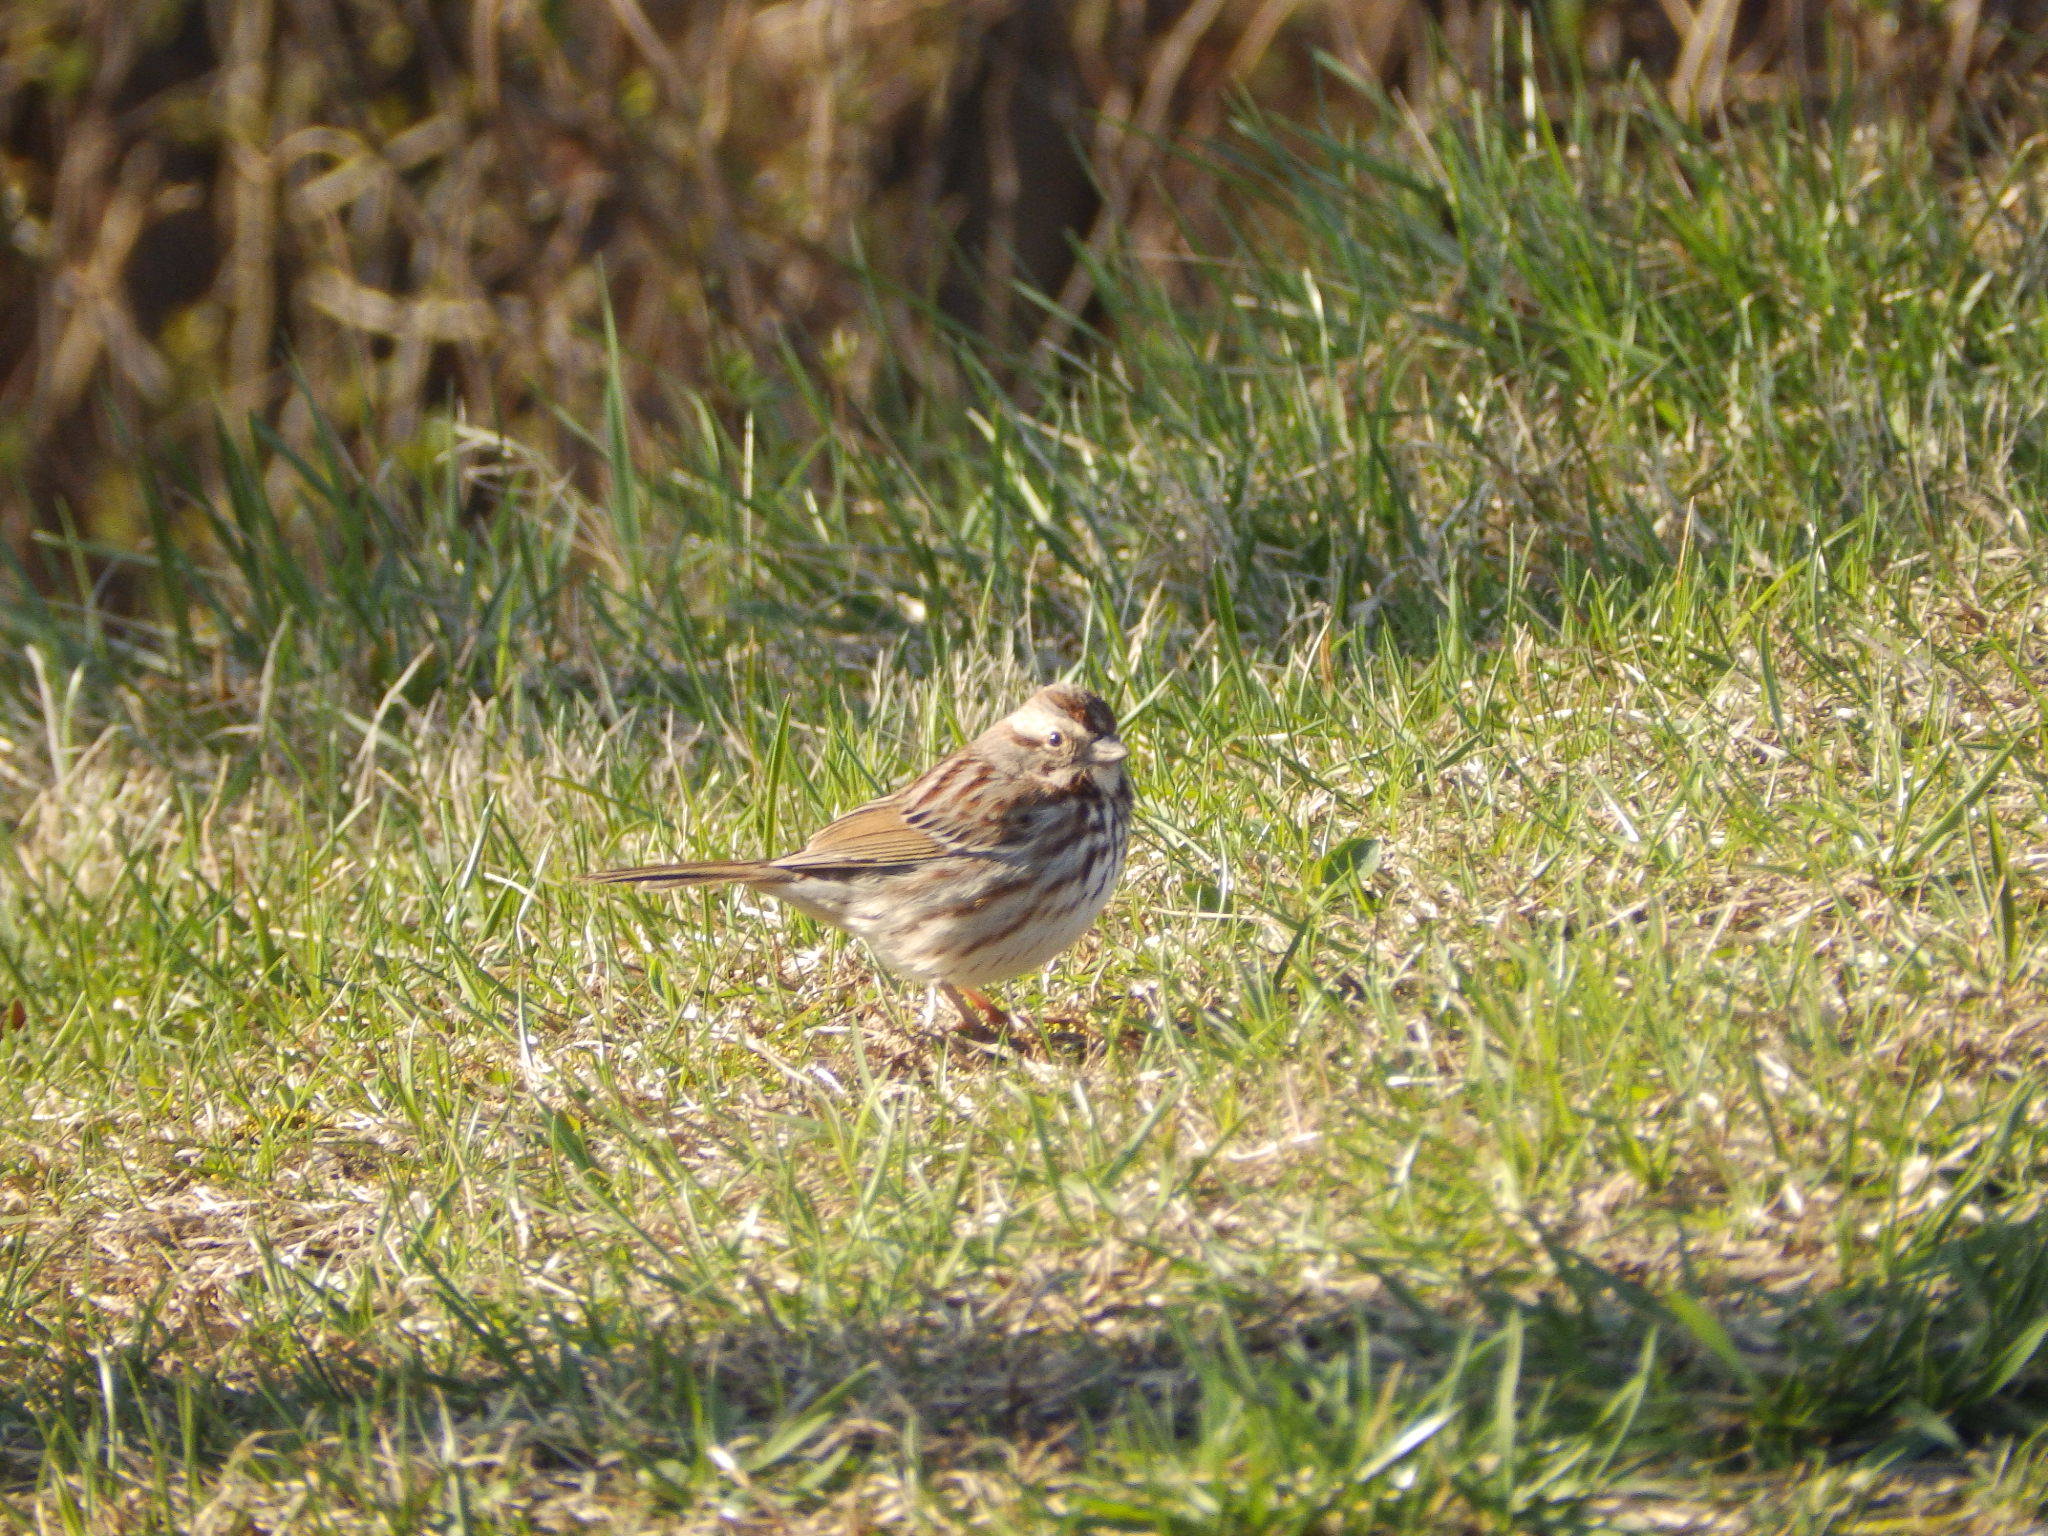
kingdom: Animalia
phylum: Chordata
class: Aves
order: Passeriformes
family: Passerellidae
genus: Melospiza
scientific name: Melospiza melodia
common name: Song sparrow
